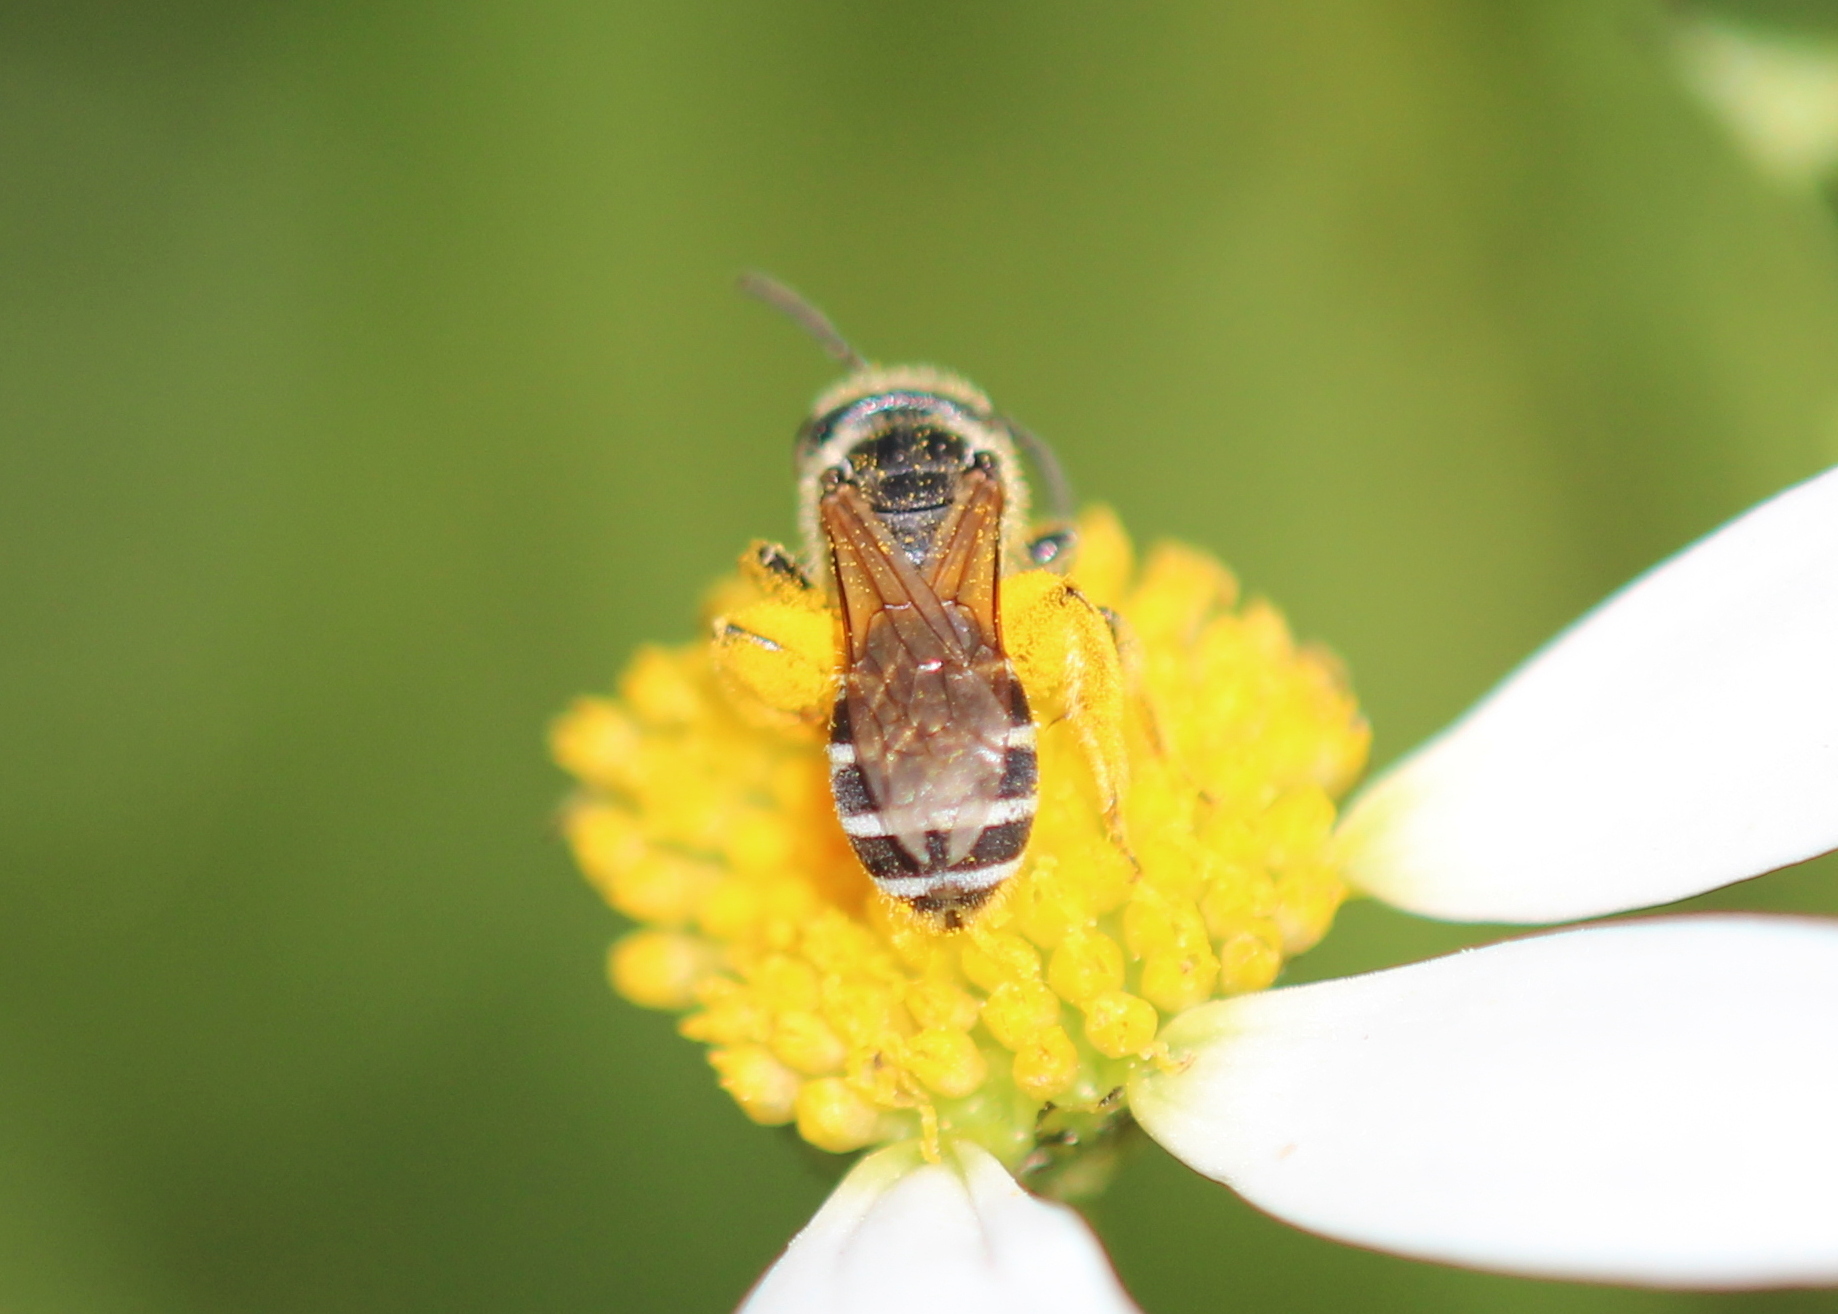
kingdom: Animalia
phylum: Arthropoda
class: Insecta
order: Hymenoptera
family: Halictidae
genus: Halictus
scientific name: Halictus ligatus
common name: Ligated furrow bee
